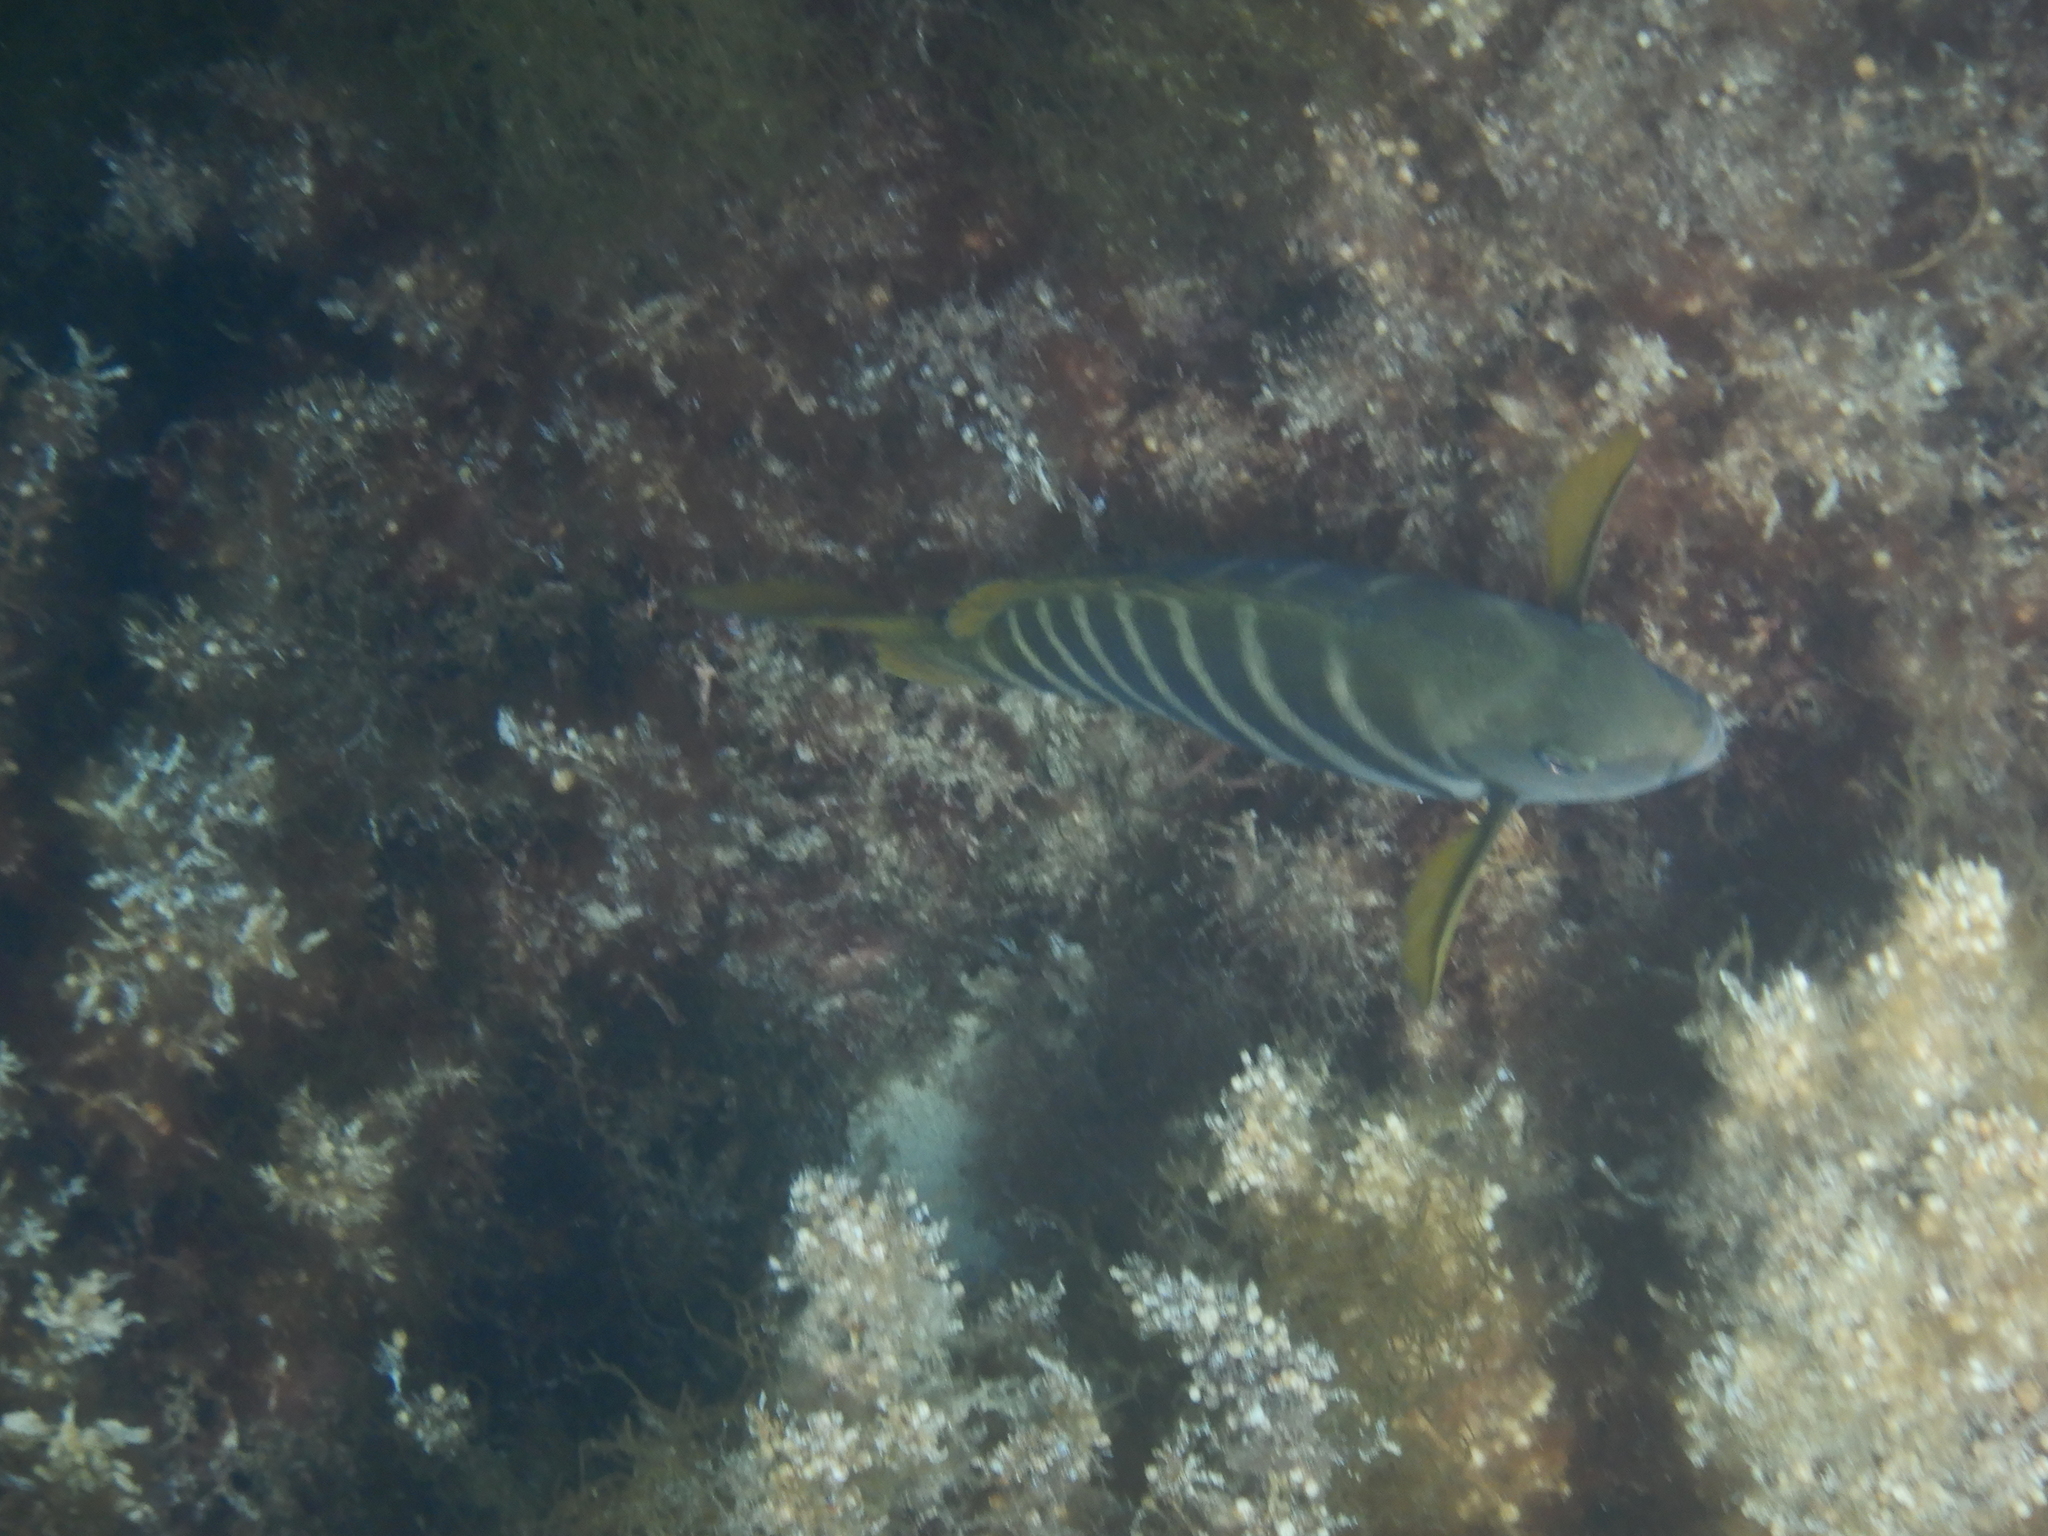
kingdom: Animalia
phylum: Chordata
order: Perciformes
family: Kyphosidae
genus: Girella
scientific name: Girella zebra
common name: Stripey bream
